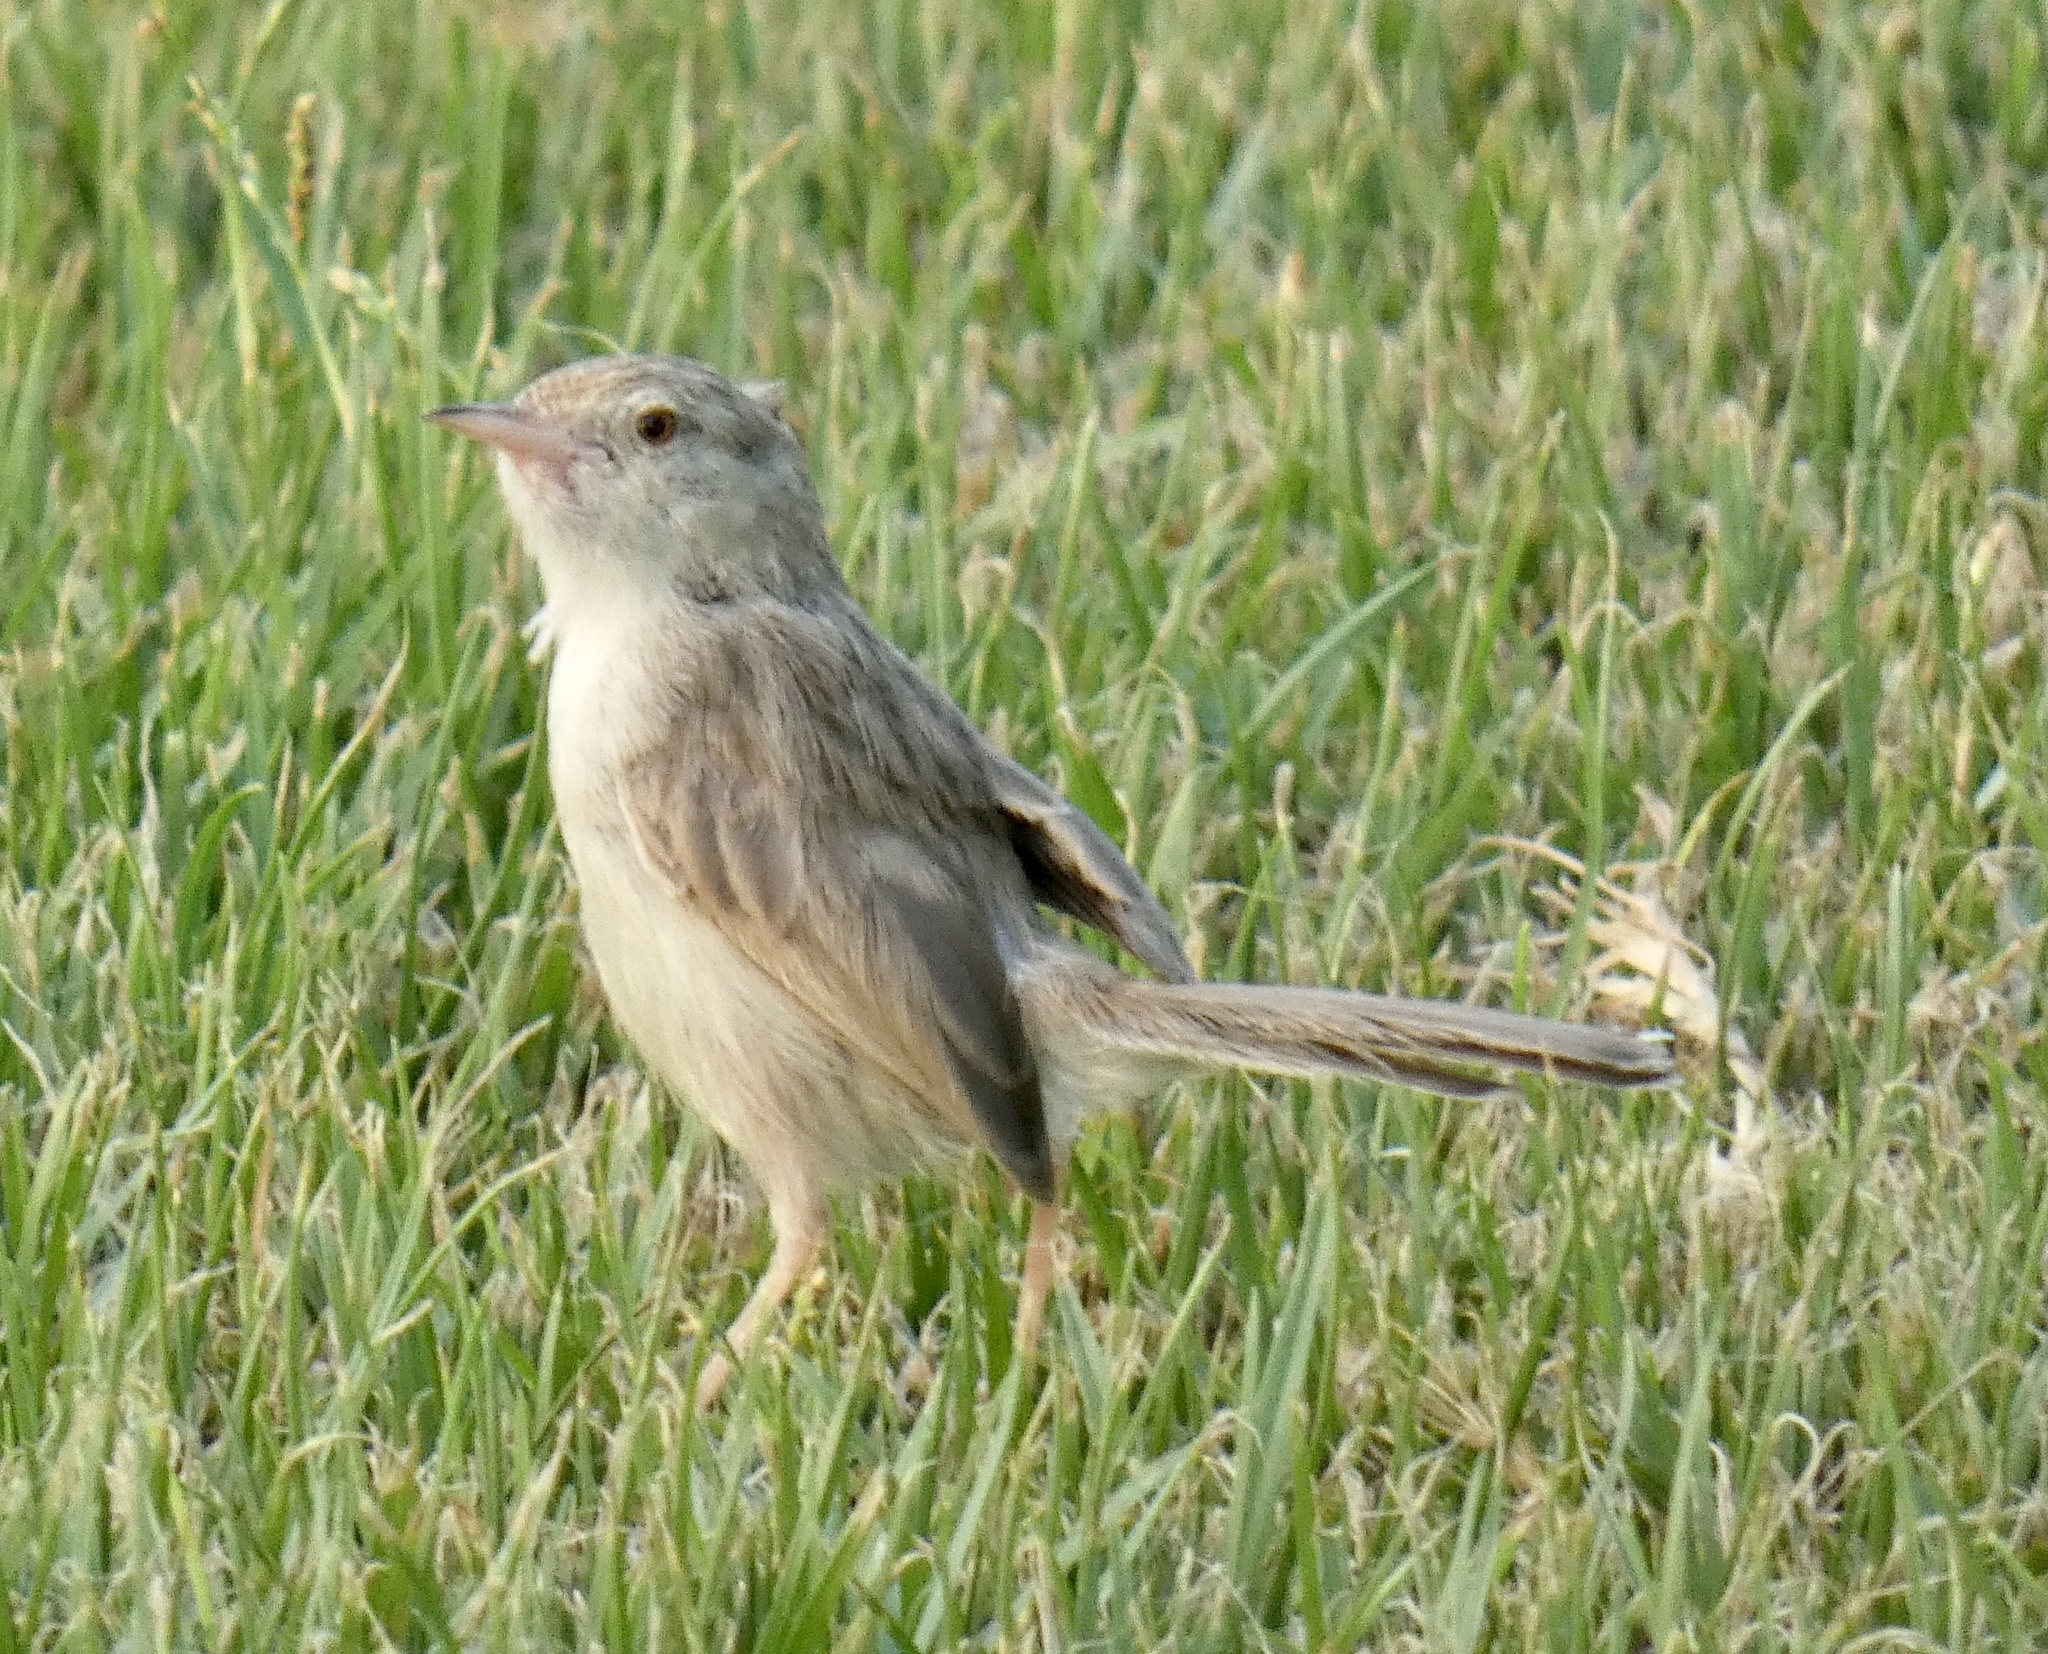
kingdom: Animalia
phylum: Chordata
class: Aves
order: Passeriformes
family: Cisticolidae
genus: Prinia
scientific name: Prinia gracilis
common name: Graceful prinia
